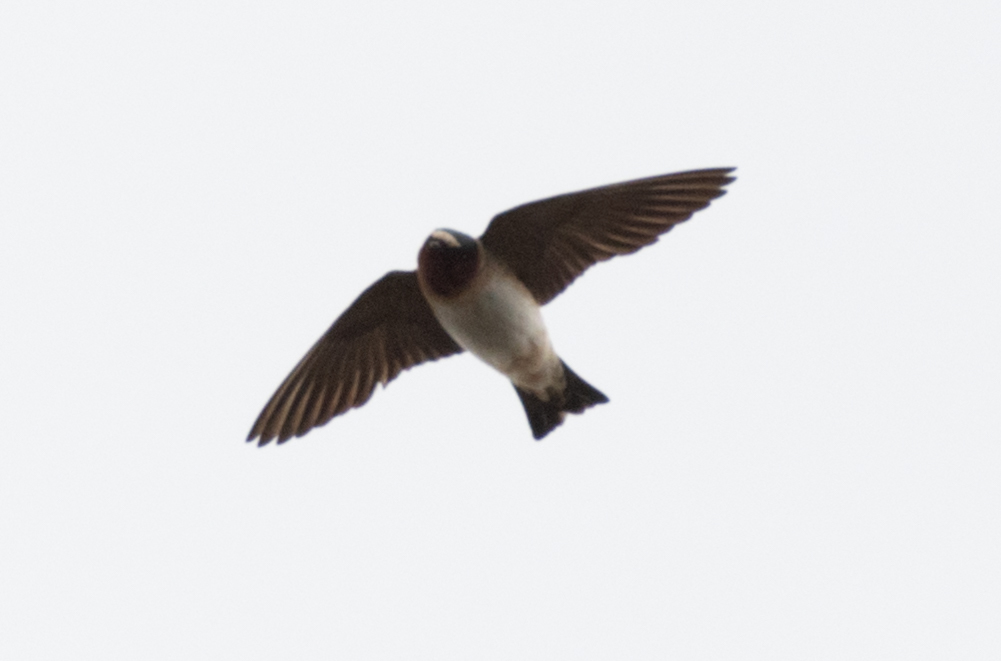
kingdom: Animalia
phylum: Chordata
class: Aves
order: Passeriformes
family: Hirundinidae
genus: Petrochelidon
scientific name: Petrochelidon pyrrhonota
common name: American cliff swallow
